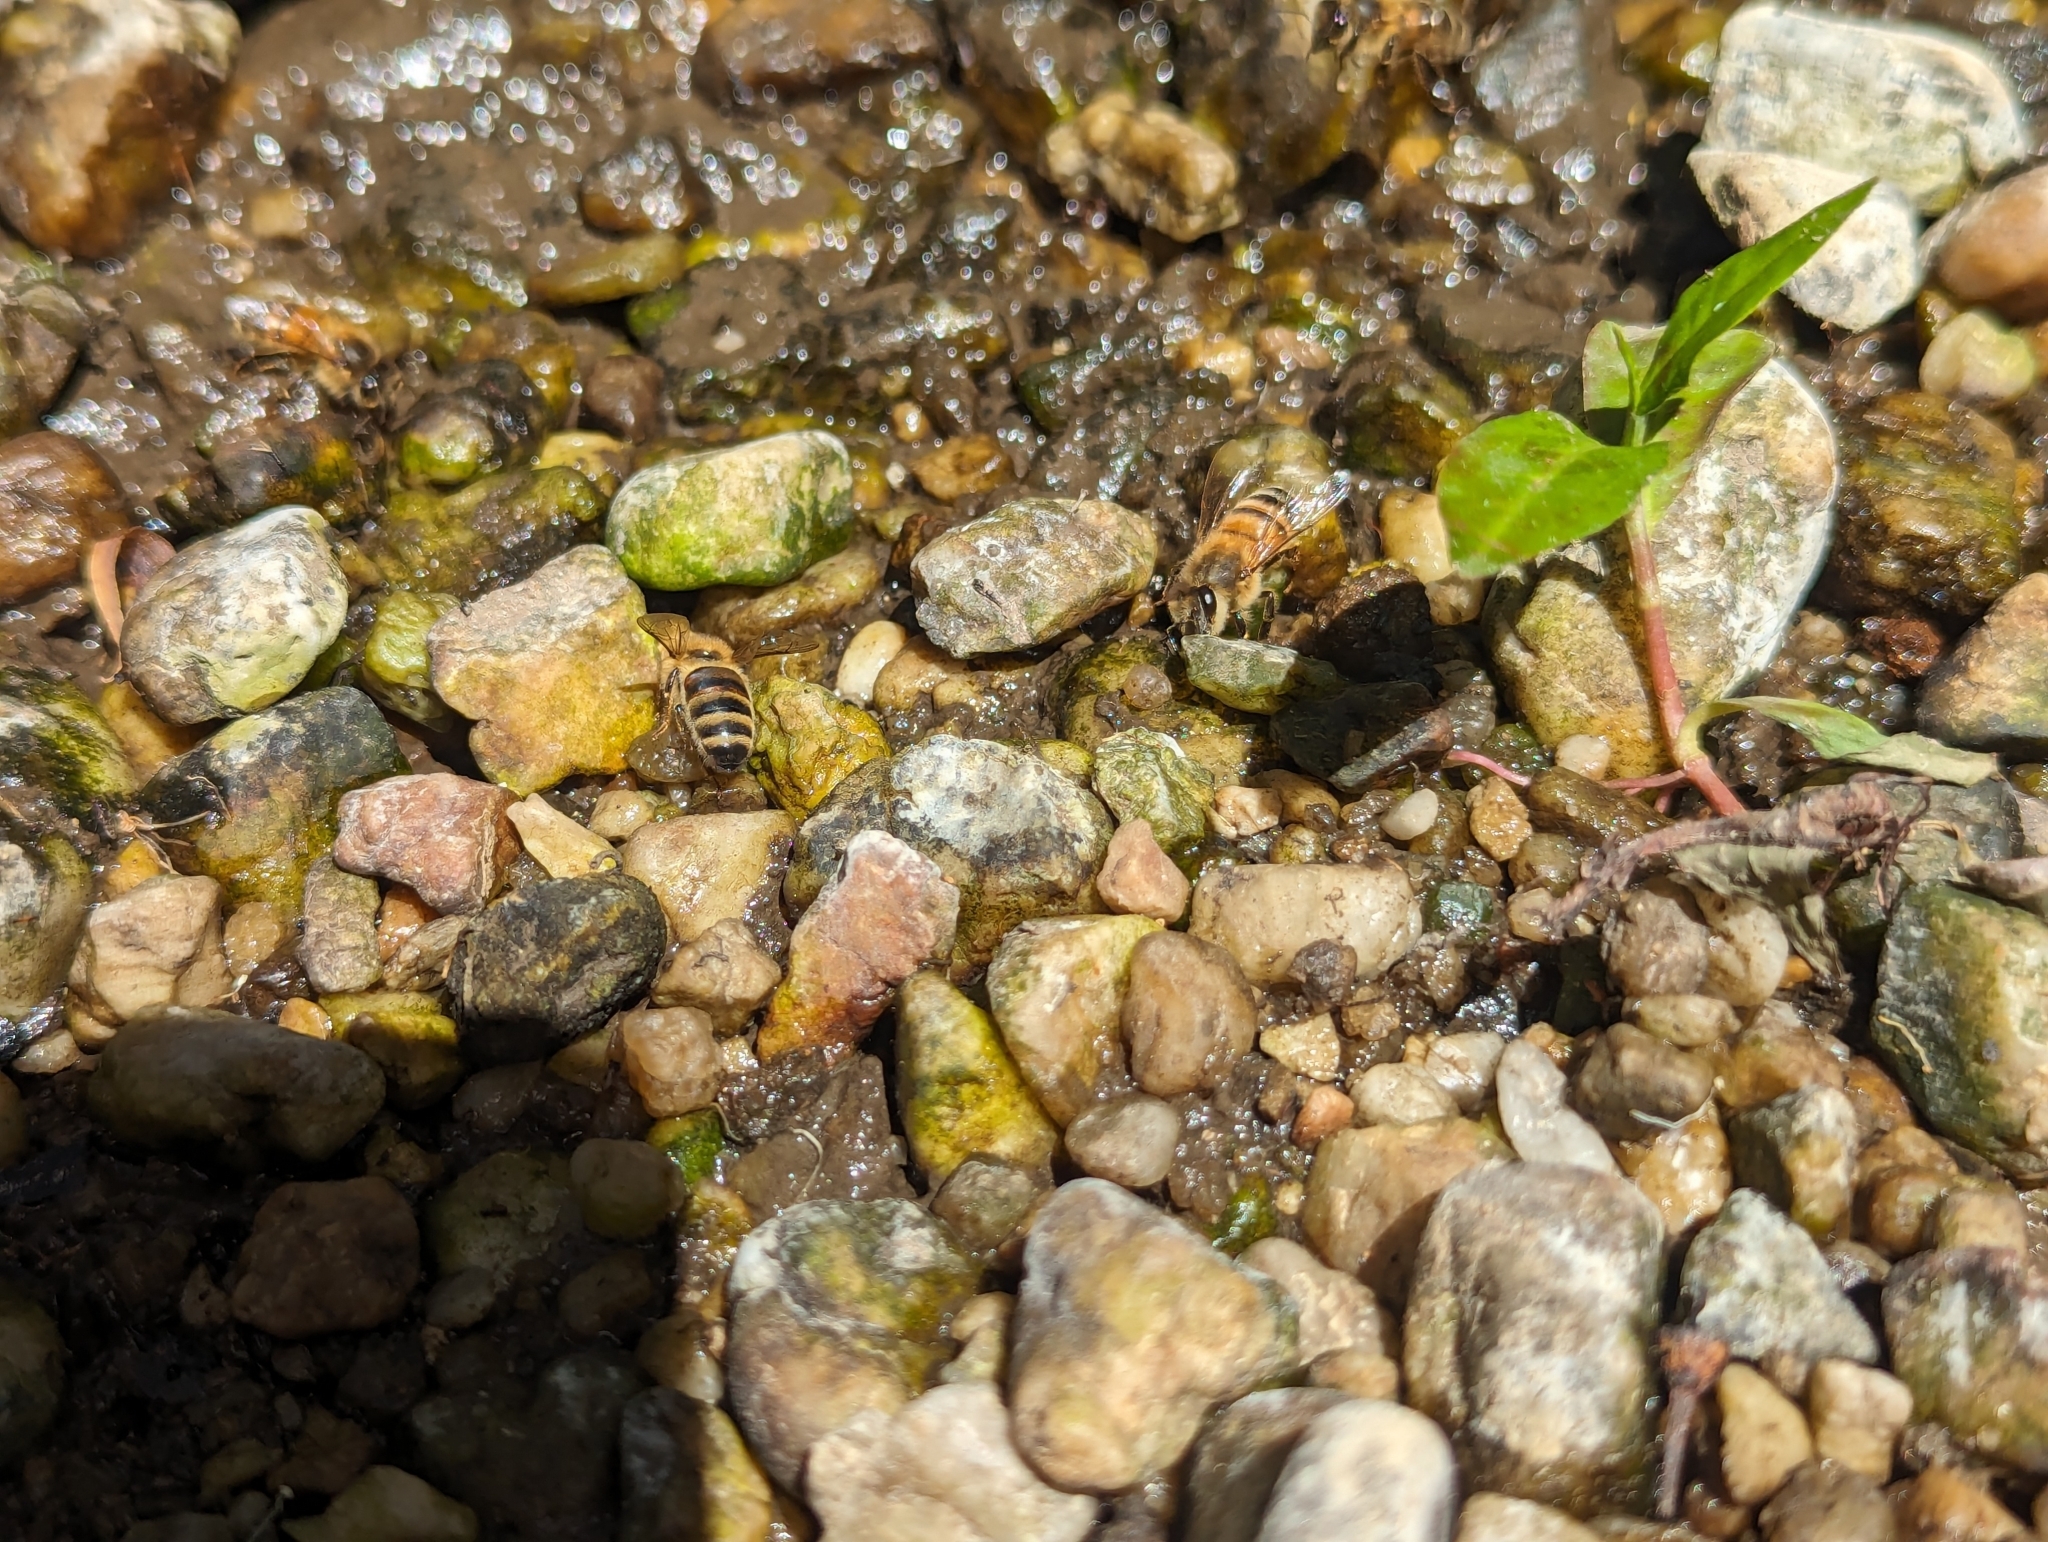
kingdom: Animalia
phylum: Arthropoda
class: Insecta
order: Hymenoptera
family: Apidae
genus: Apis
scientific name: Apis mellifera
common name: Honey bee
